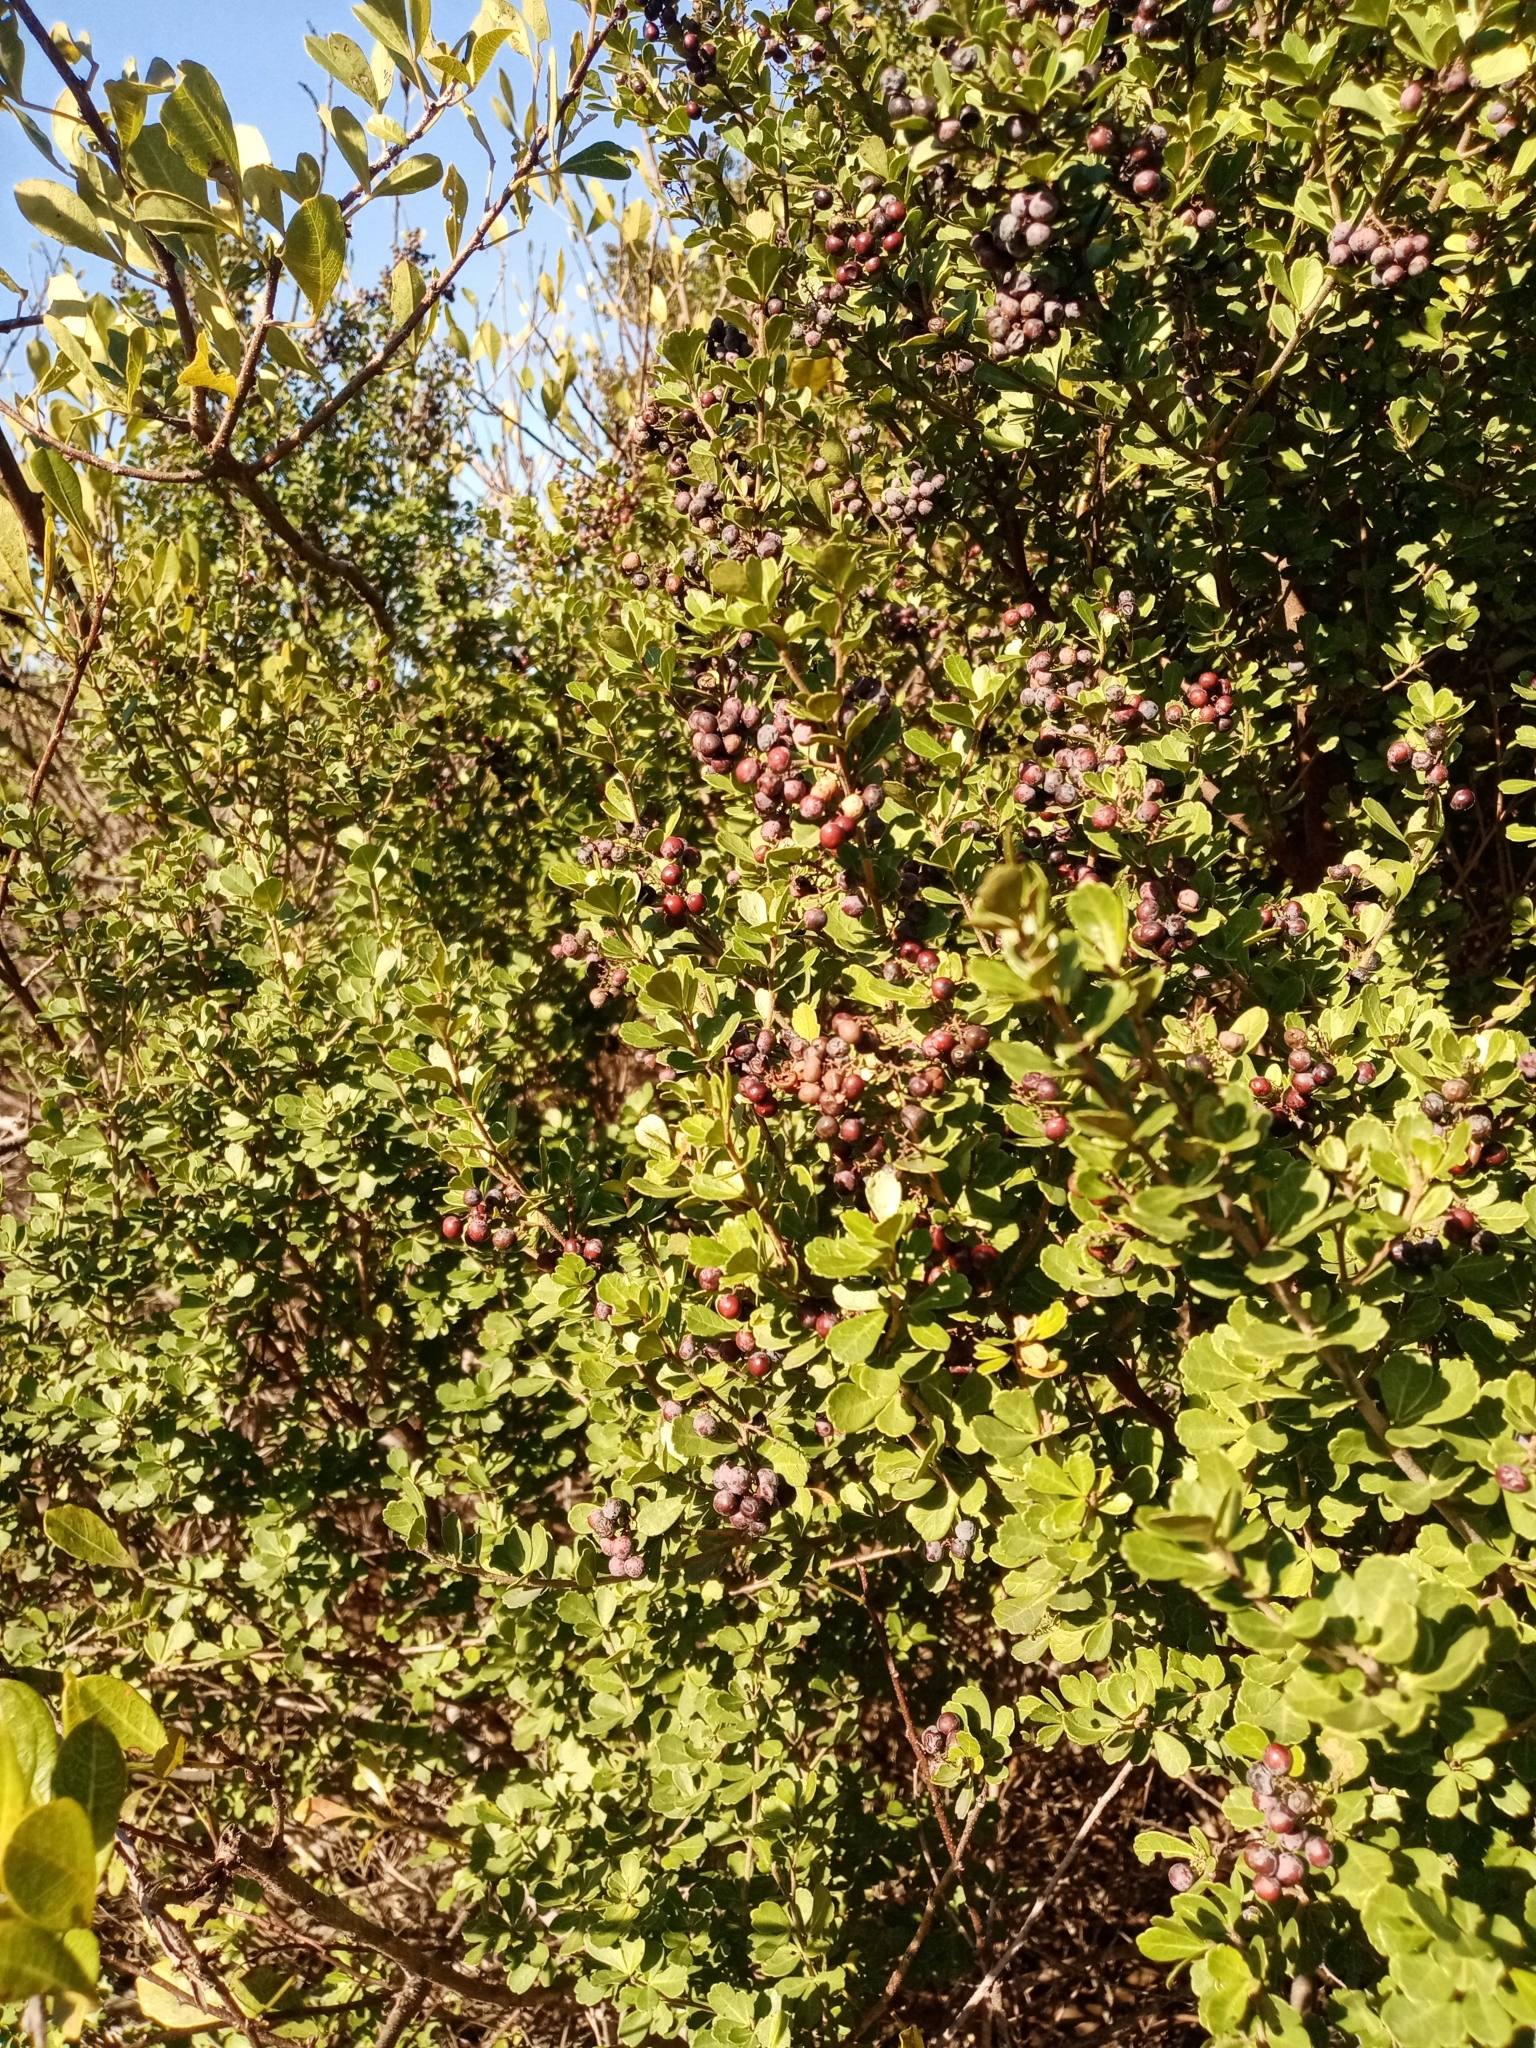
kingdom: Plantae
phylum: Tracheophyta
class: Magnoliopsida
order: Sapindales
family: Anacardiaceae
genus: Searsia
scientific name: Searsia crenata
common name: Crowberry
